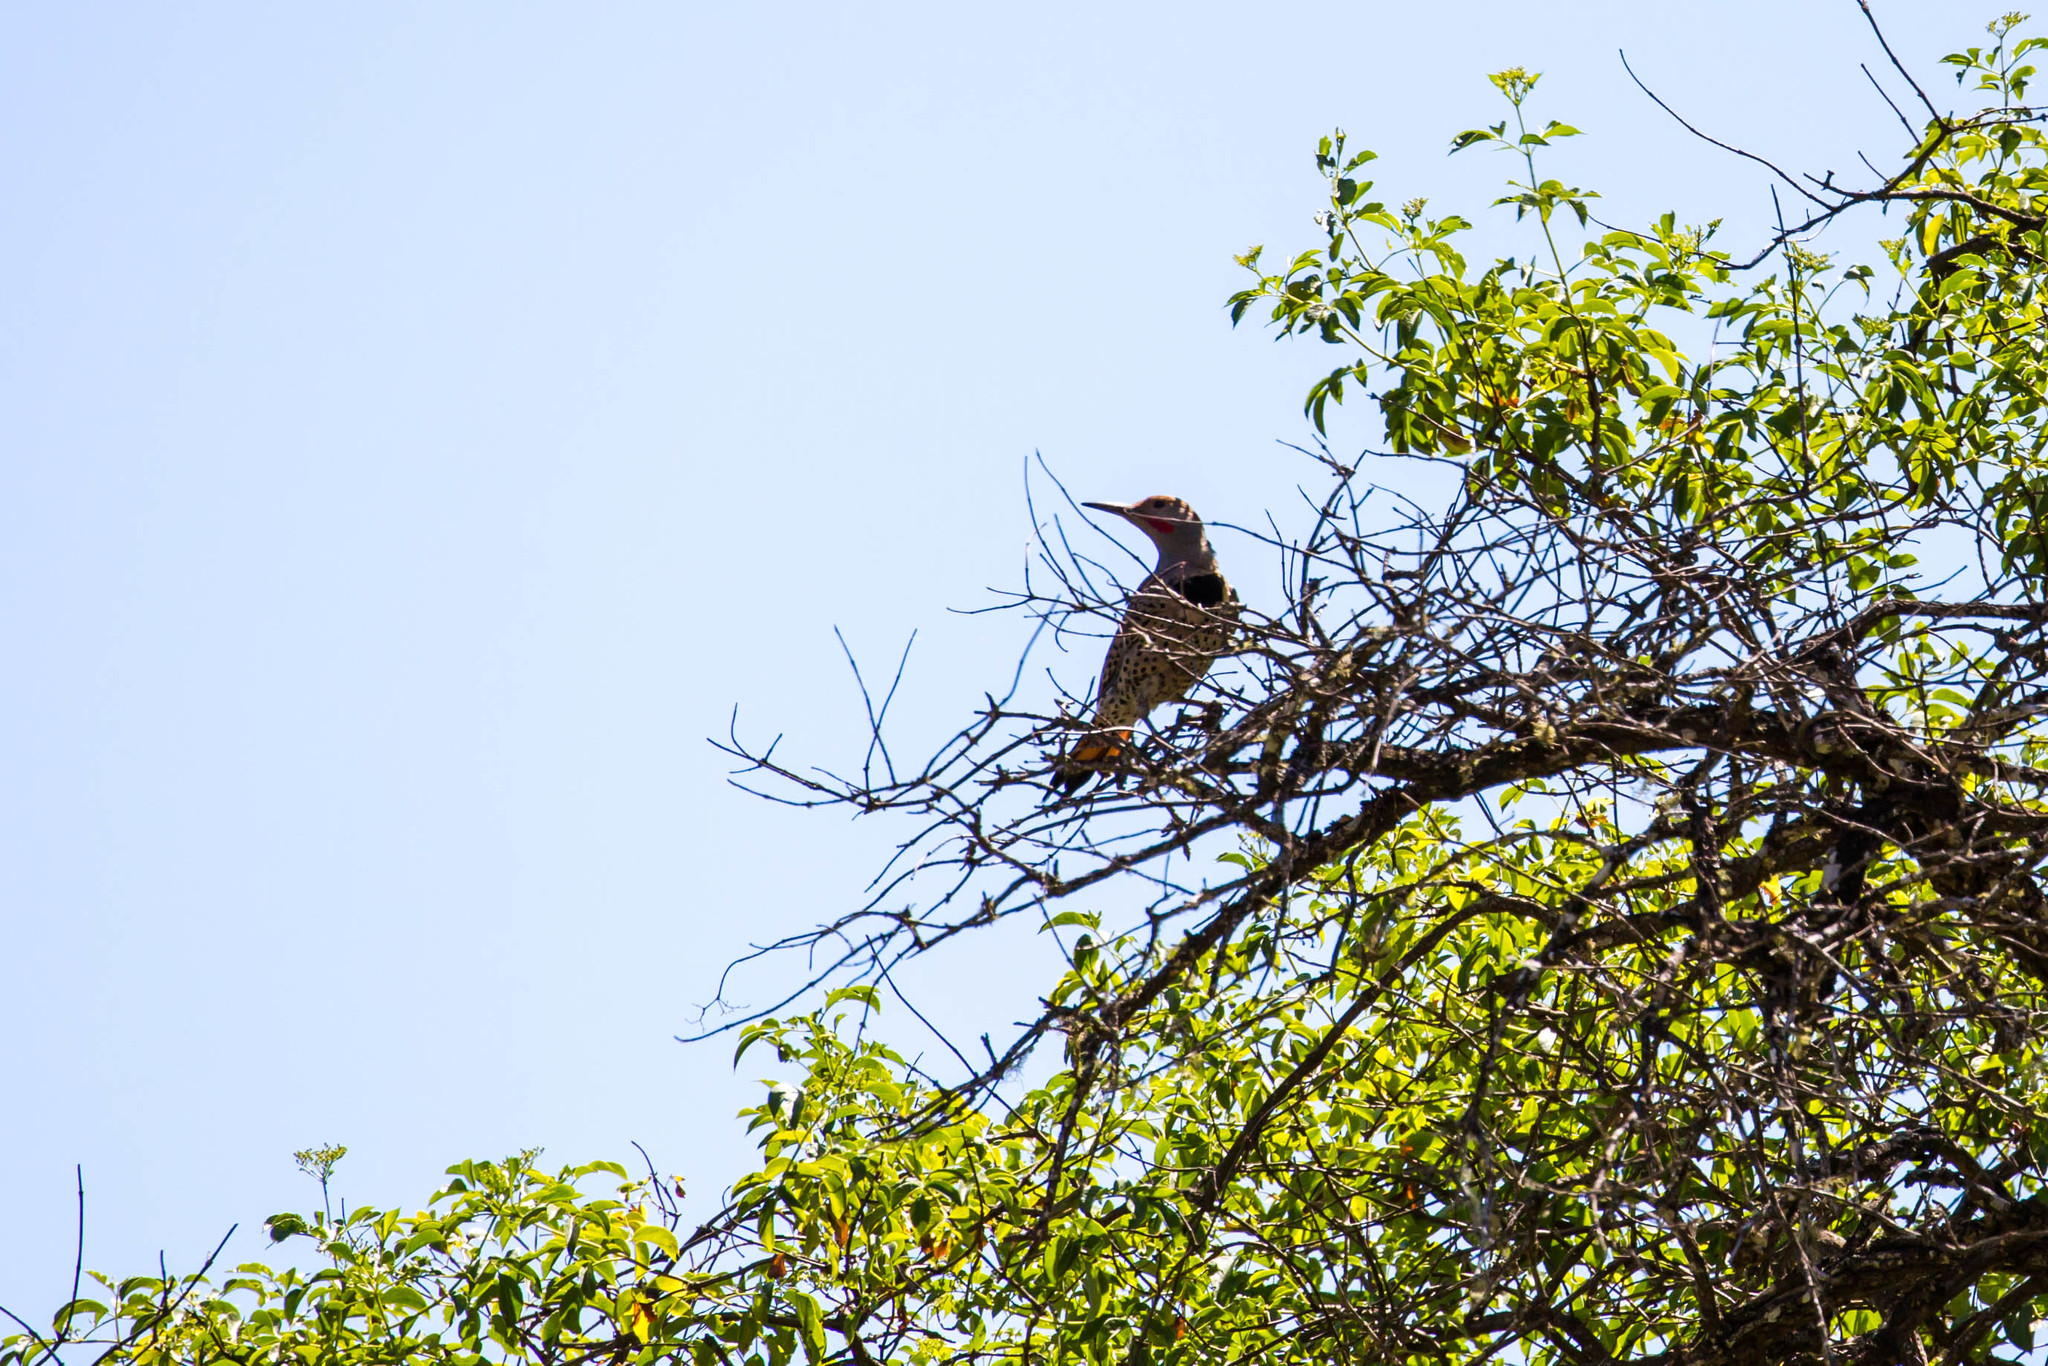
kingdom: Animalia
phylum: Chordata
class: Aves
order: Piciformes
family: Picidae
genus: Colaptes
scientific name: Colaptes auratus
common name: Northern flicker
